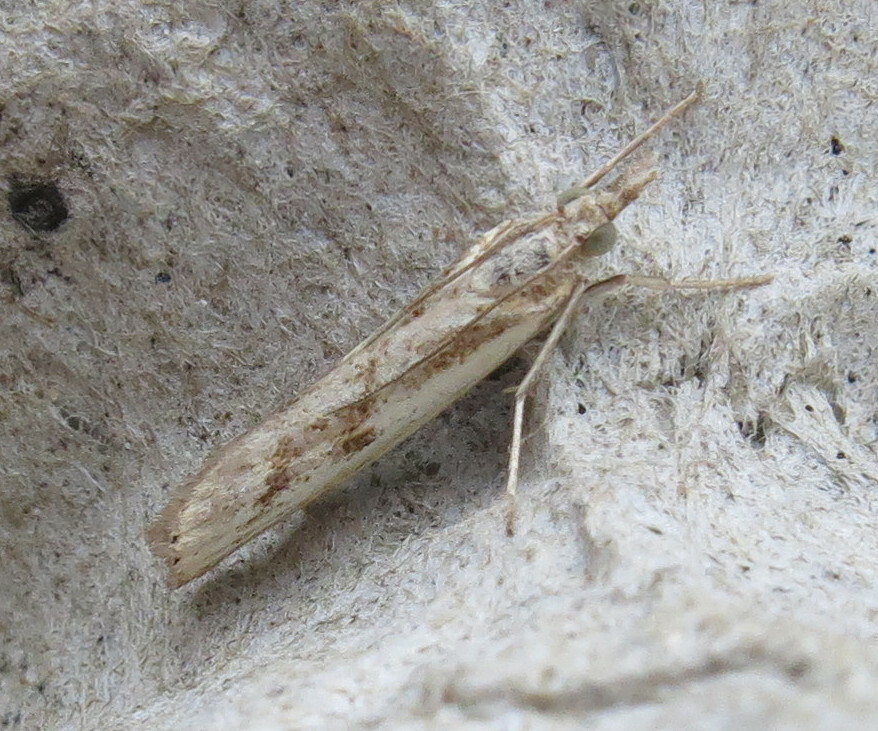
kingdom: Animalia
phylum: Arthropoda
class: Insecta
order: Lepidoptera
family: Crambidae
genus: Agriphila
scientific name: Agriphila inquinatella
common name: Barred grass-veneer
